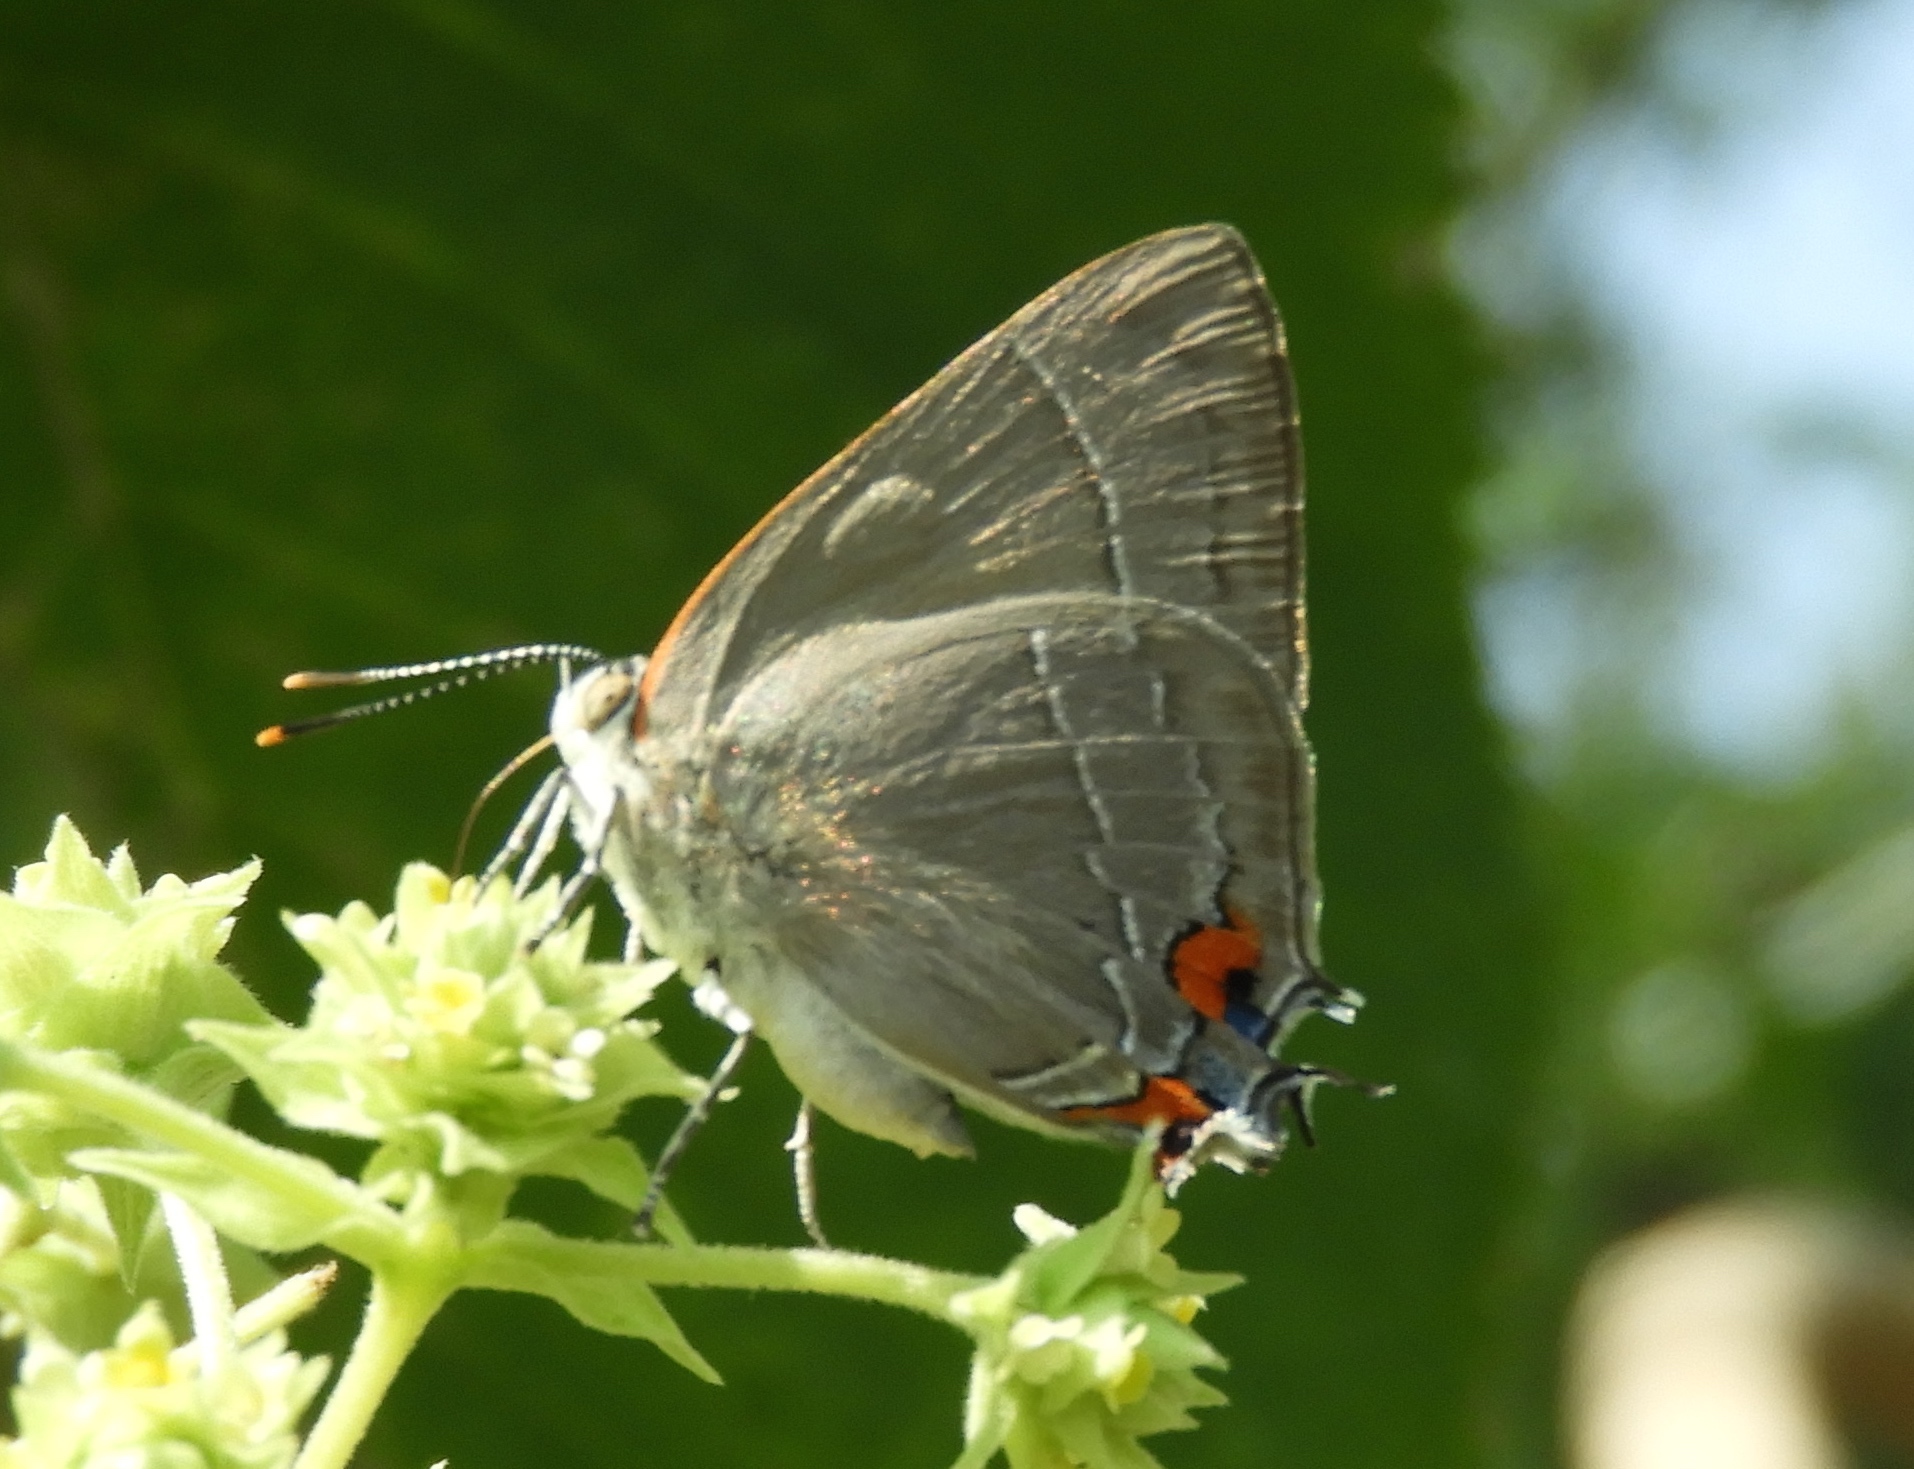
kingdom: Animalia
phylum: Arthropoda
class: Insecta
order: Lepidoptera
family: Lycaenidae
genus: Rekoa
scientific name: Rekoa
